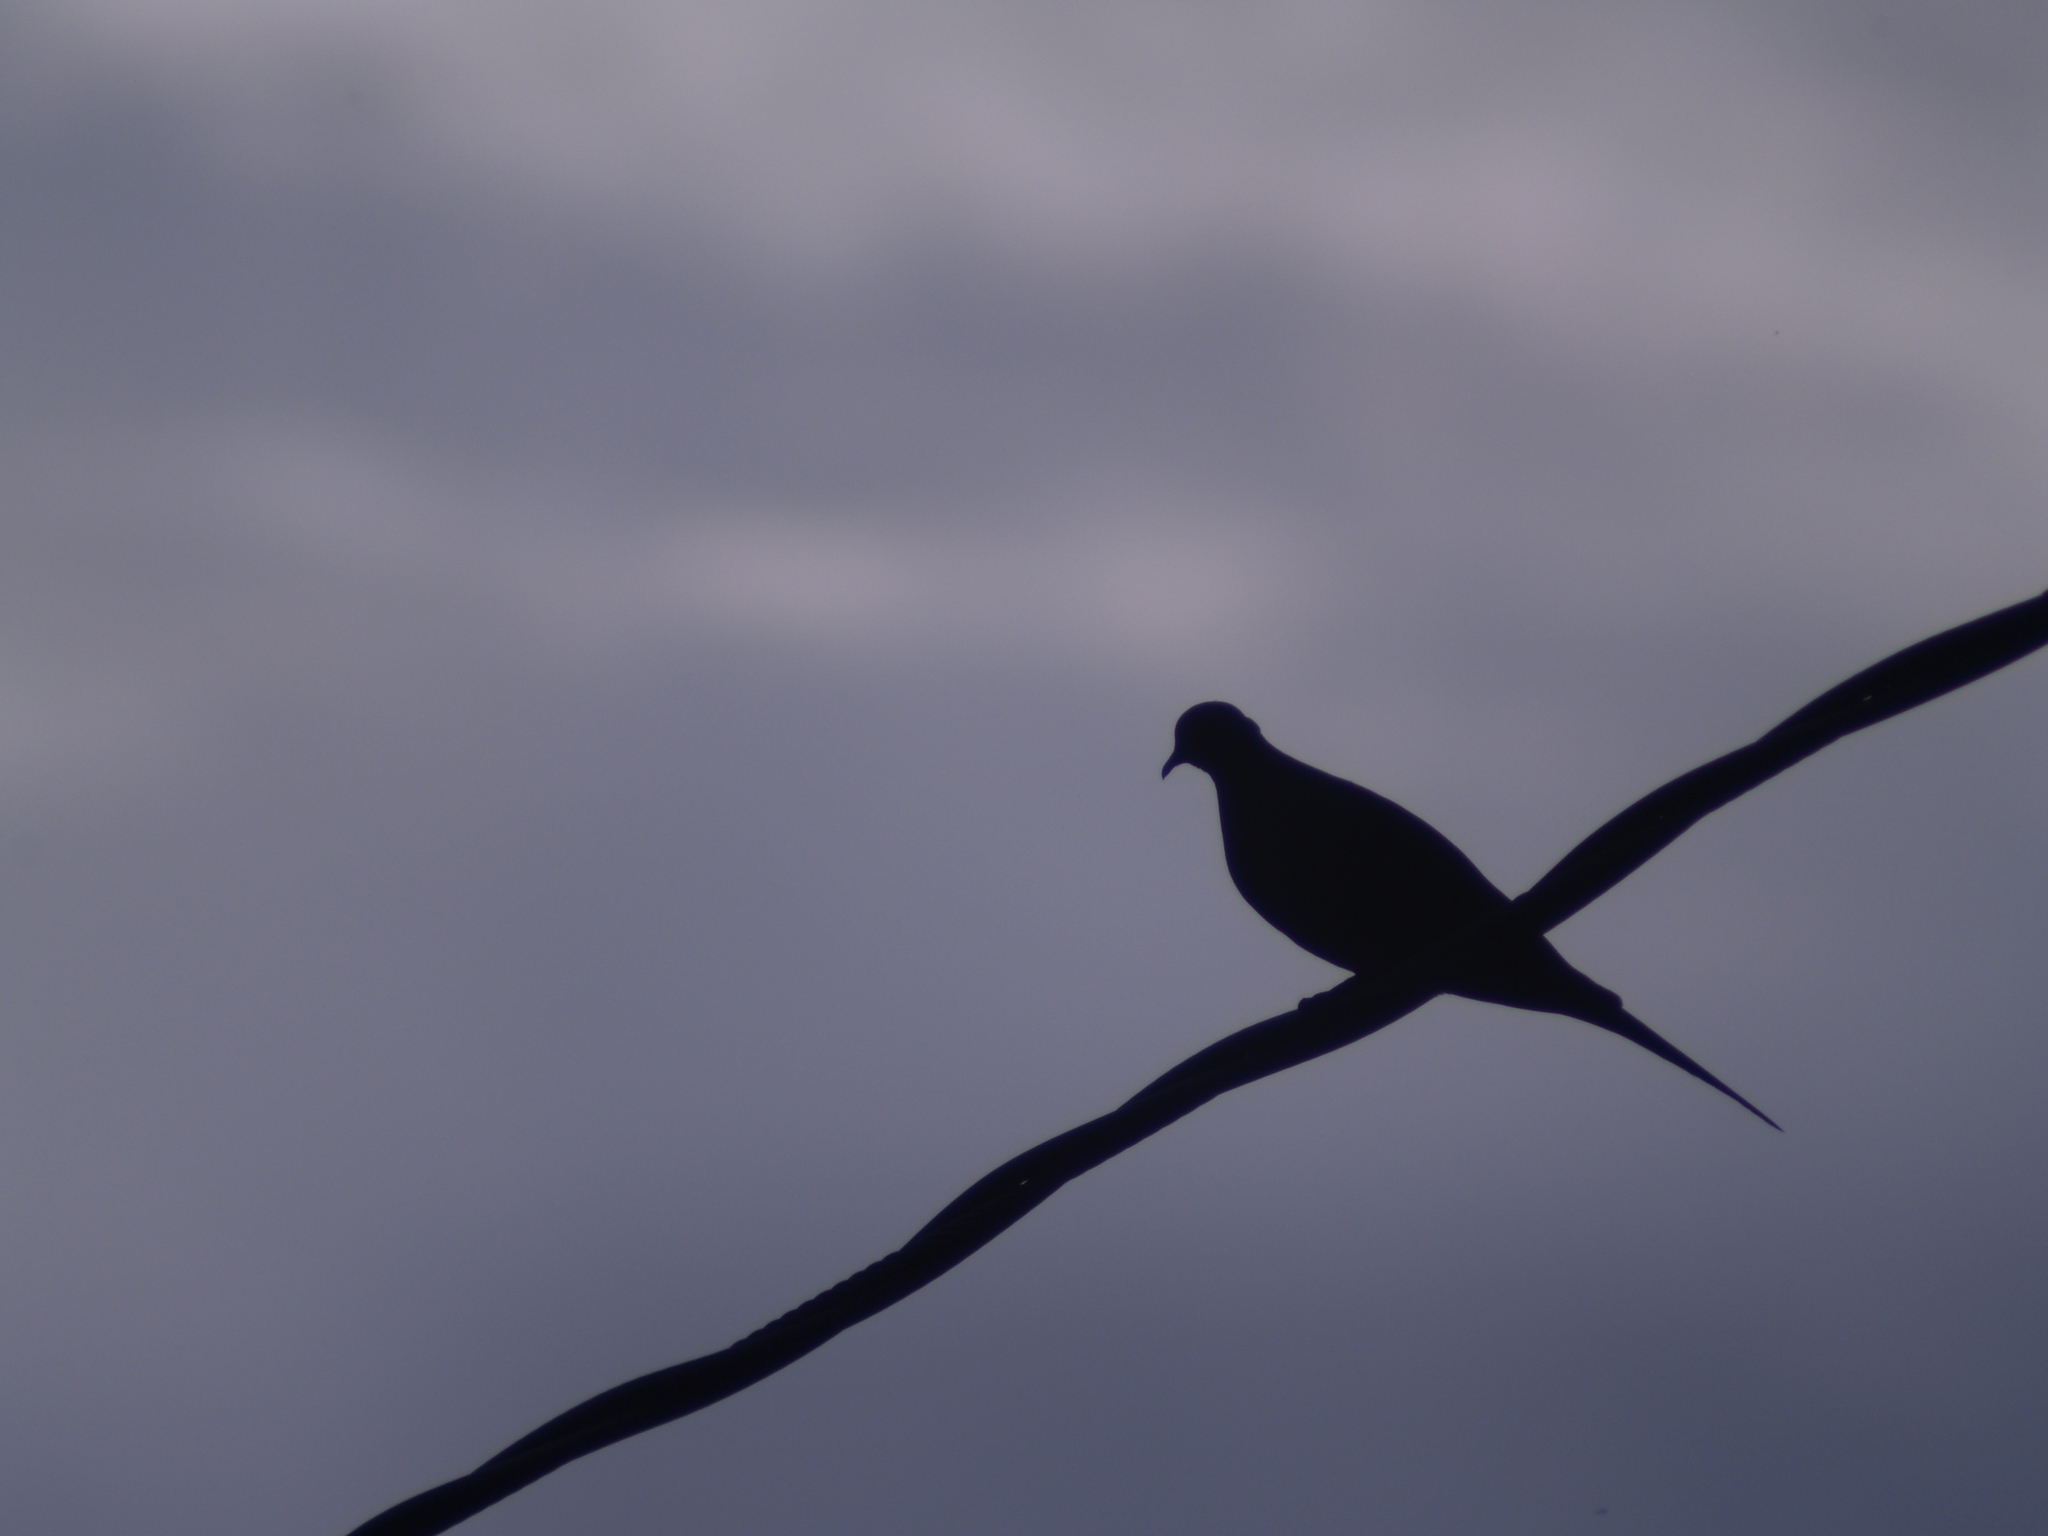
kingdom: Animalia
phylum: Chordata
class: Aves
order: Columbiformes
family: Columbidae
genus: Zenaida
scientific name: Zenaida macroura
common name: Mourning dove
